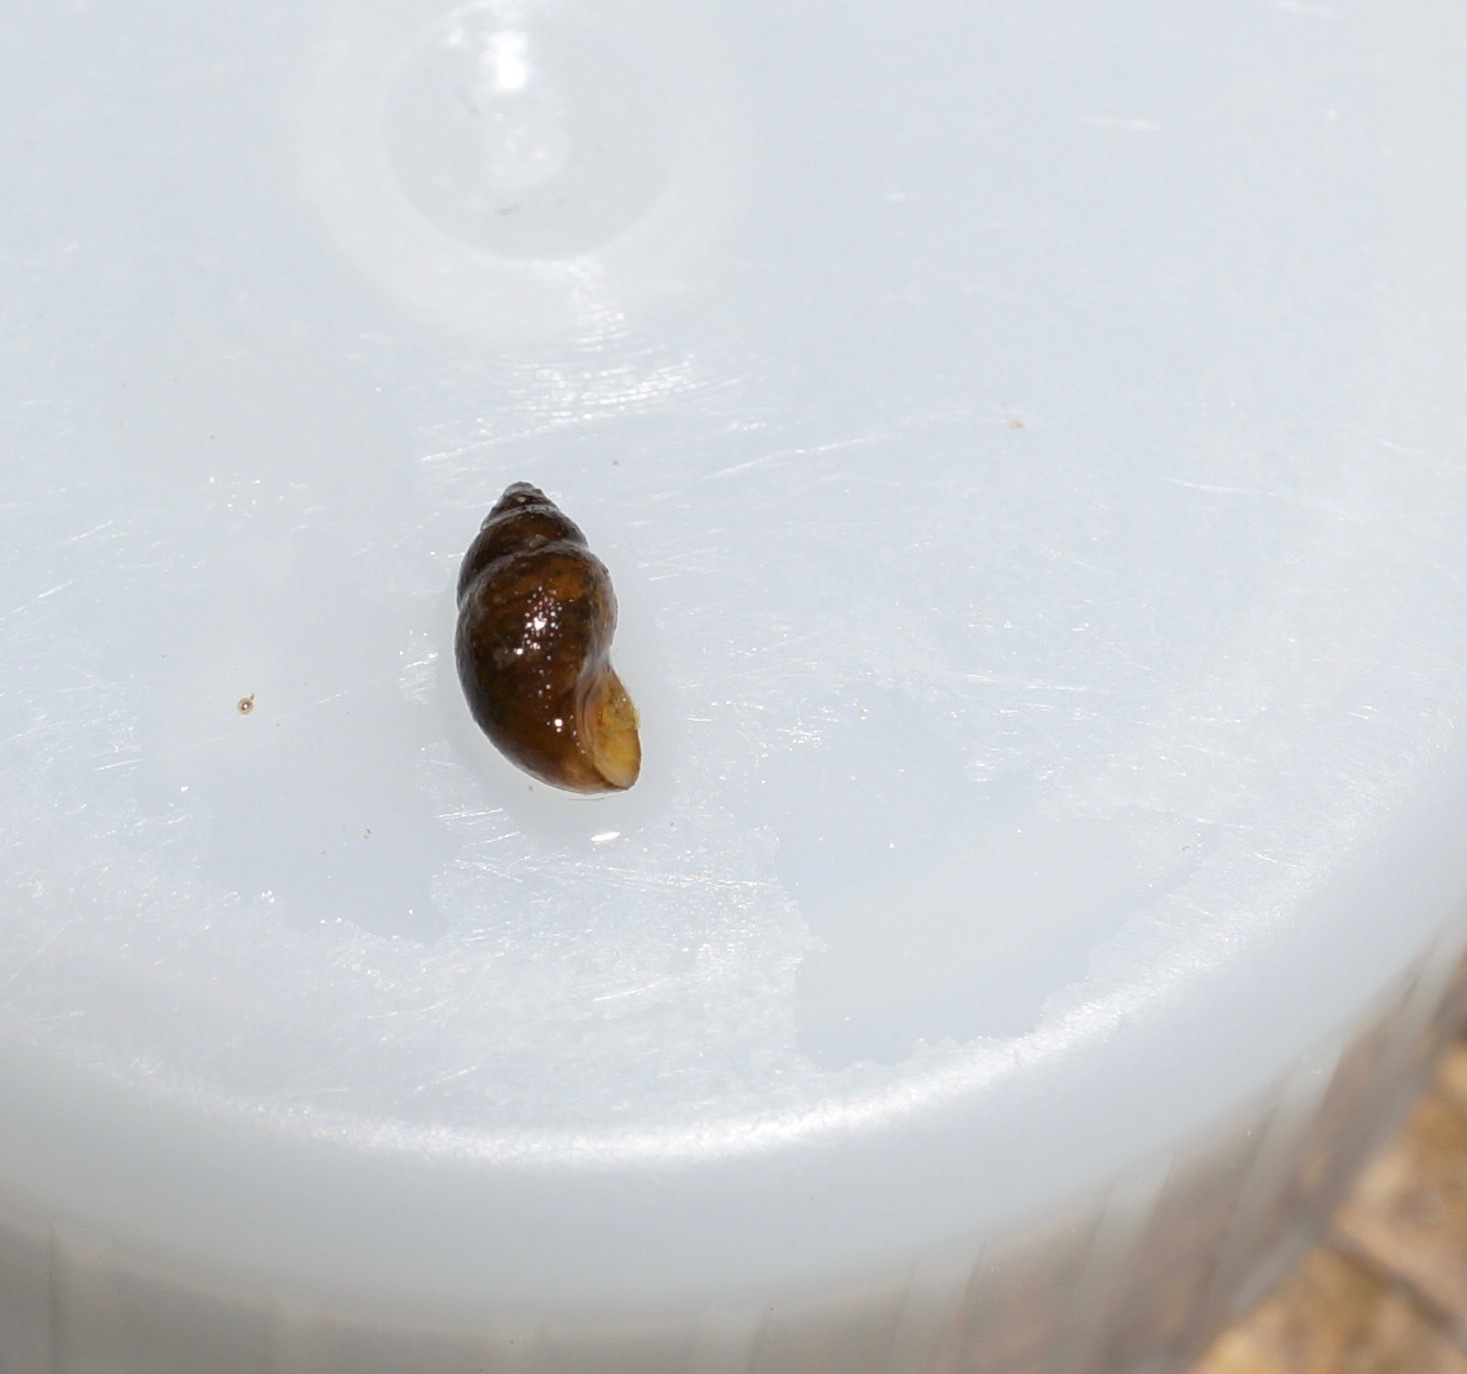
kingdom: Animalia
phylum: Mollusca
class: Gastropoda
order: Littorinimorpha
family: Tateidae
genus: Potamopyrgus
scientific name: Potamopyrgus antipodarum
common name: Jenkins' spire snail
